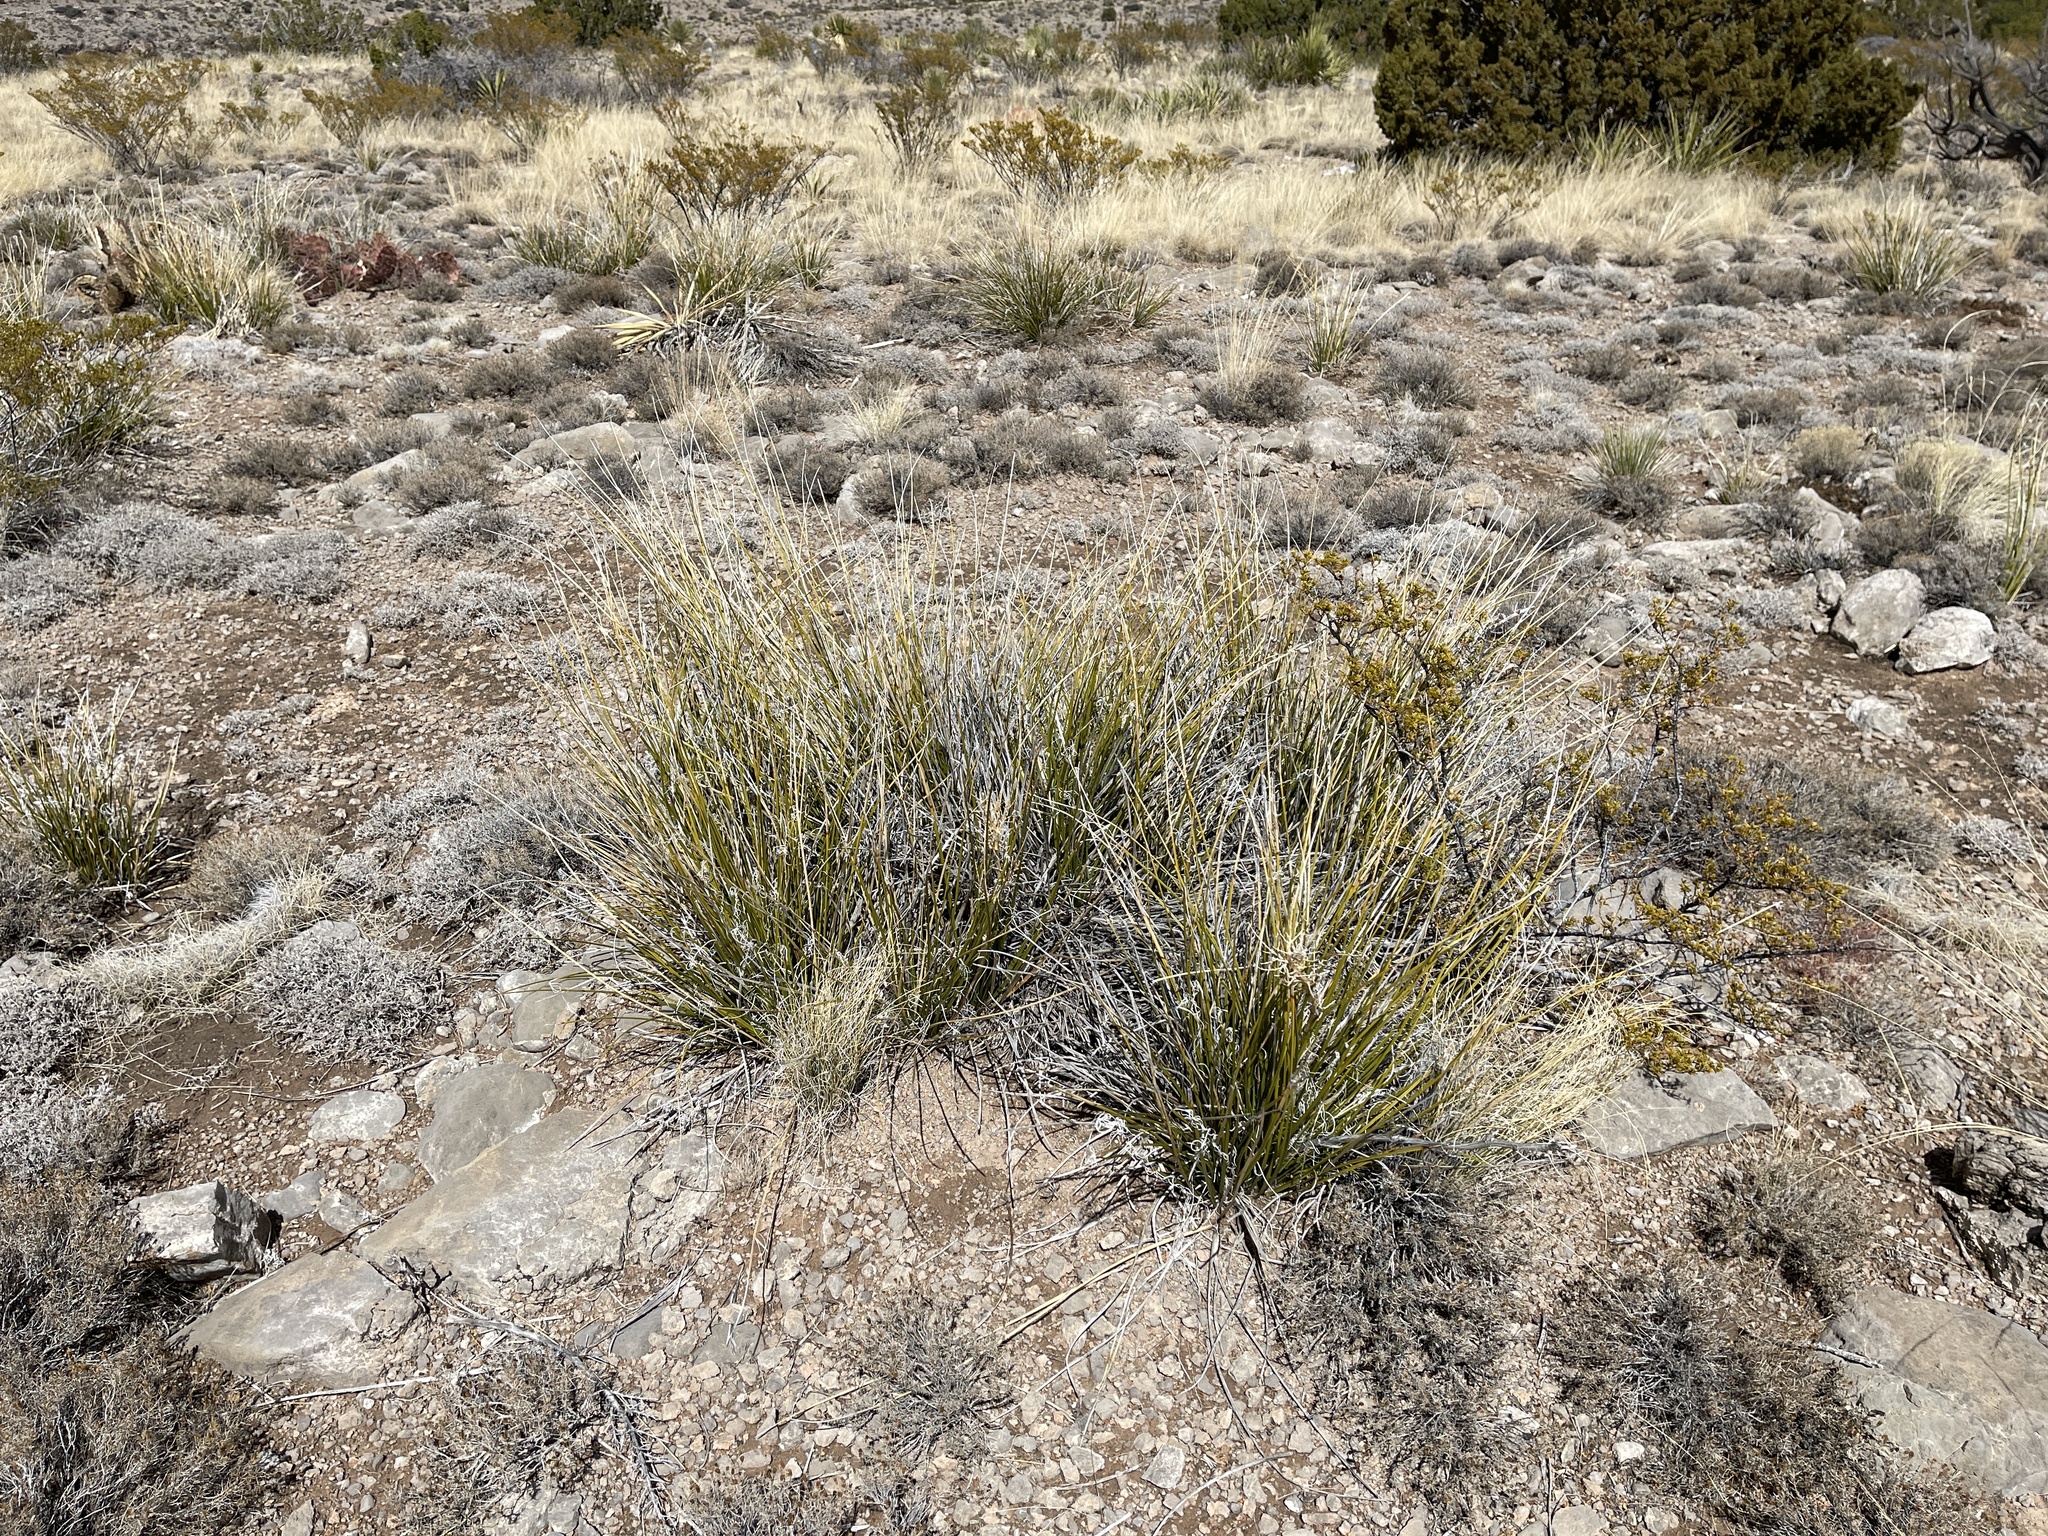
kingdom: Plantae
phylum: Tracheophyta
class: Liliopsida
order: Asparagales
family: Asparagaceae
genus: Nolina
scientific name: Nolina texana
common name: Texas sacahuiste
